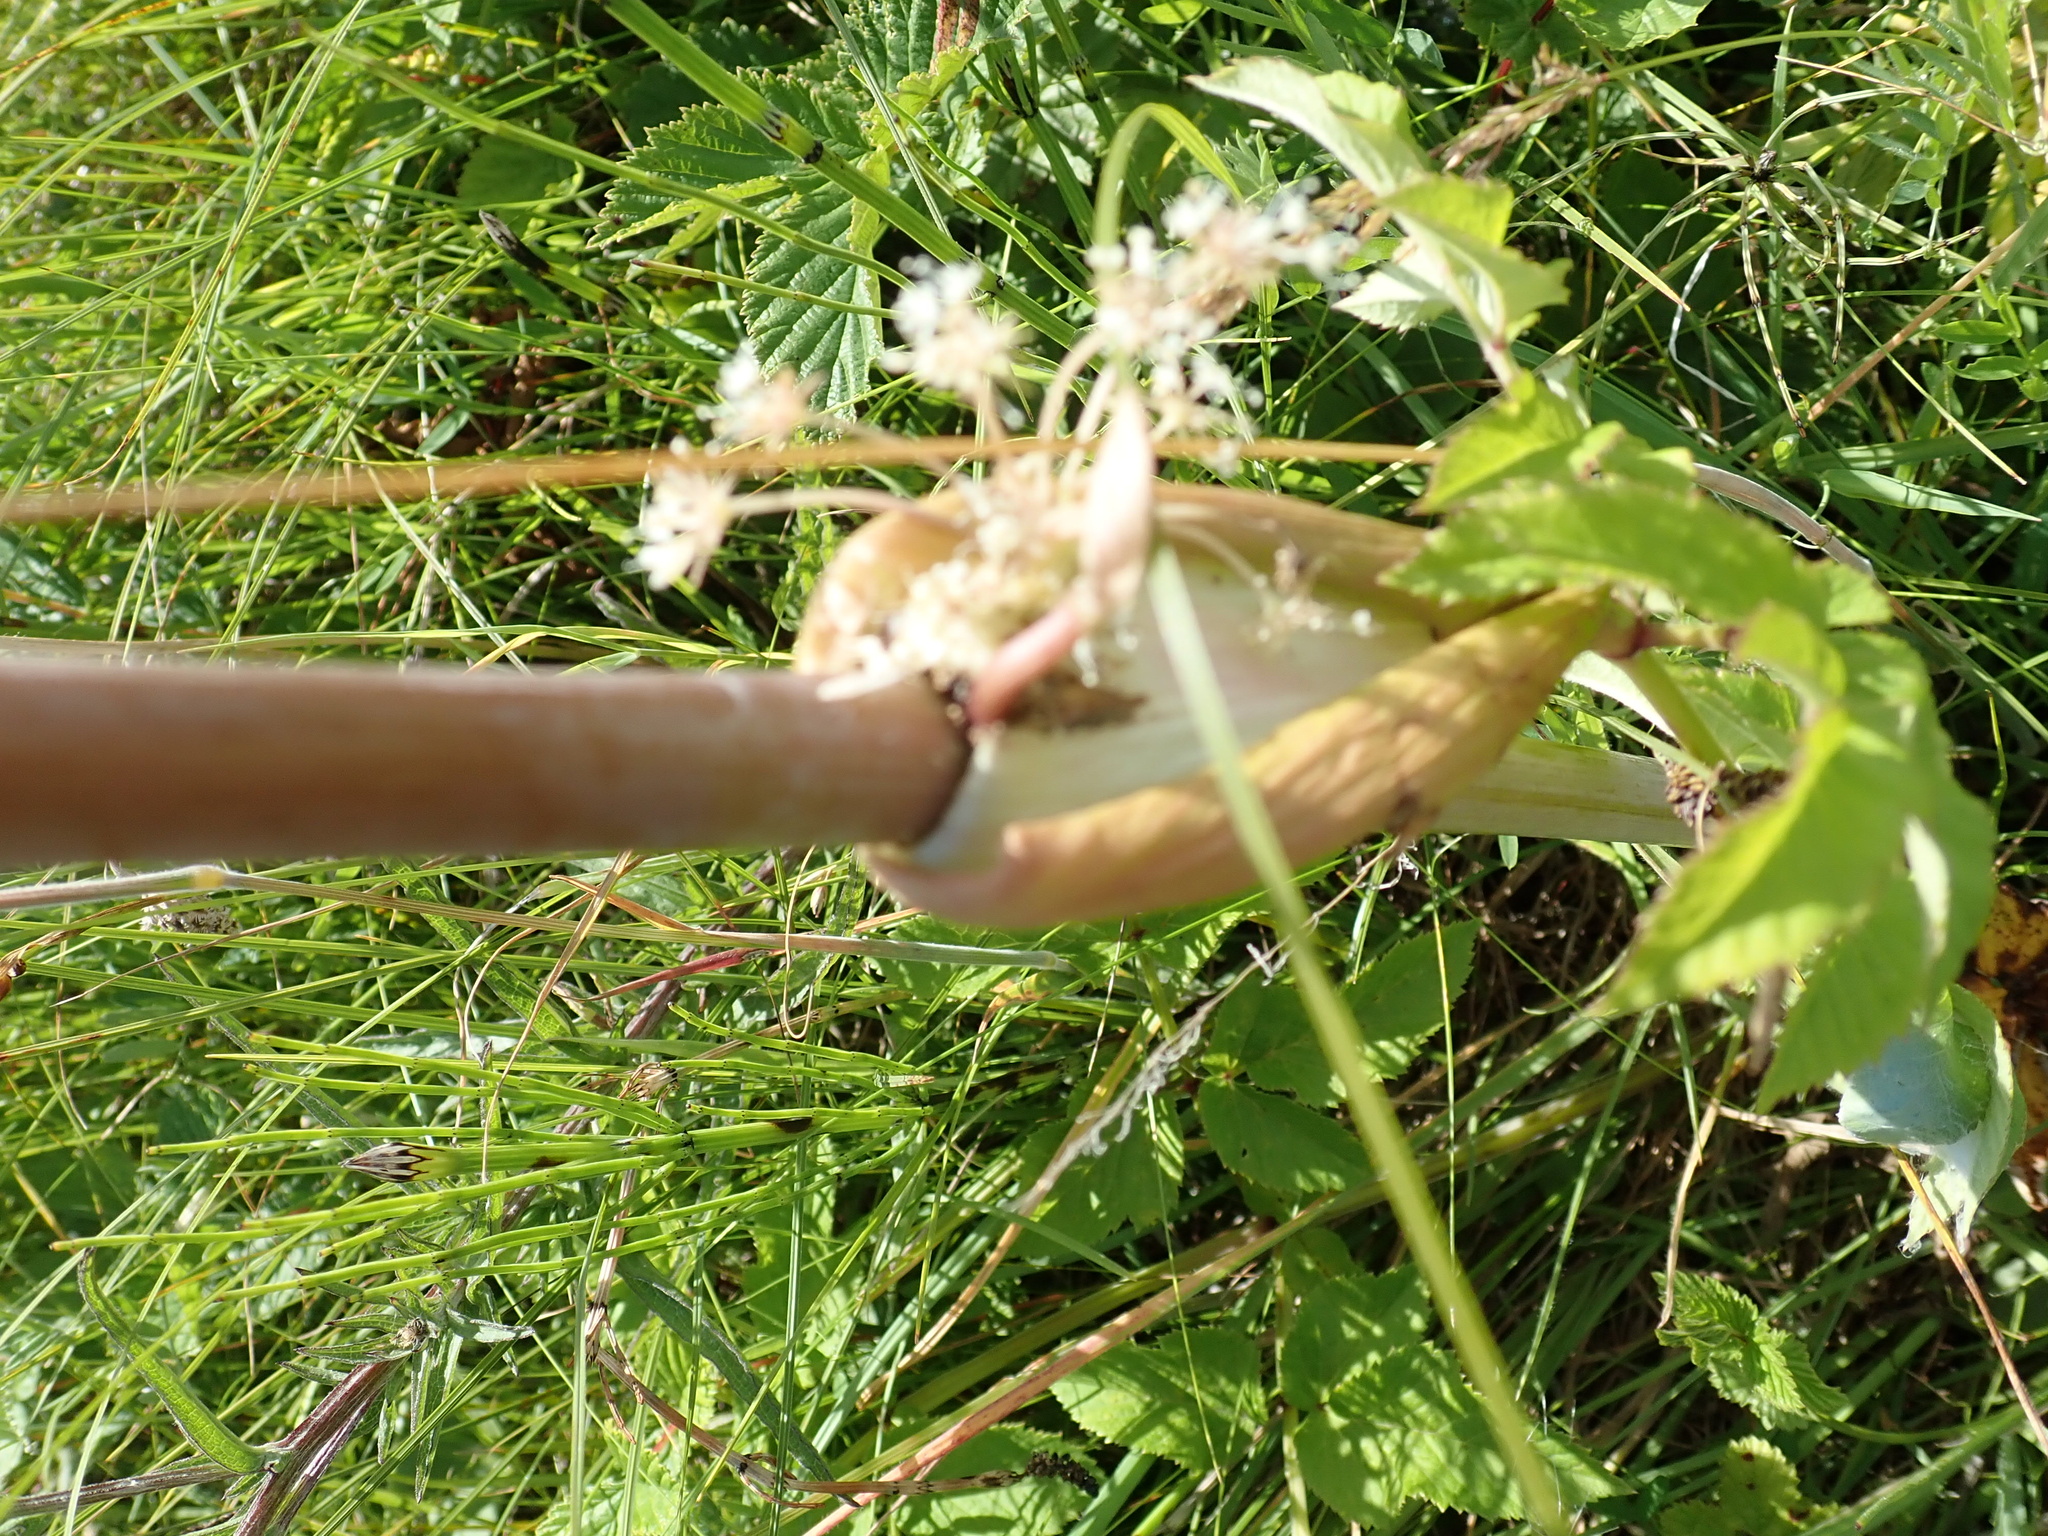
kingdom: Plantae
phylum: Tracheophyta
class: Magnoliopsida
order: Apiales
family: Apiaceae
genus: Angelica
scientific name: Angelica sylvestris
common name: Wild angelica
